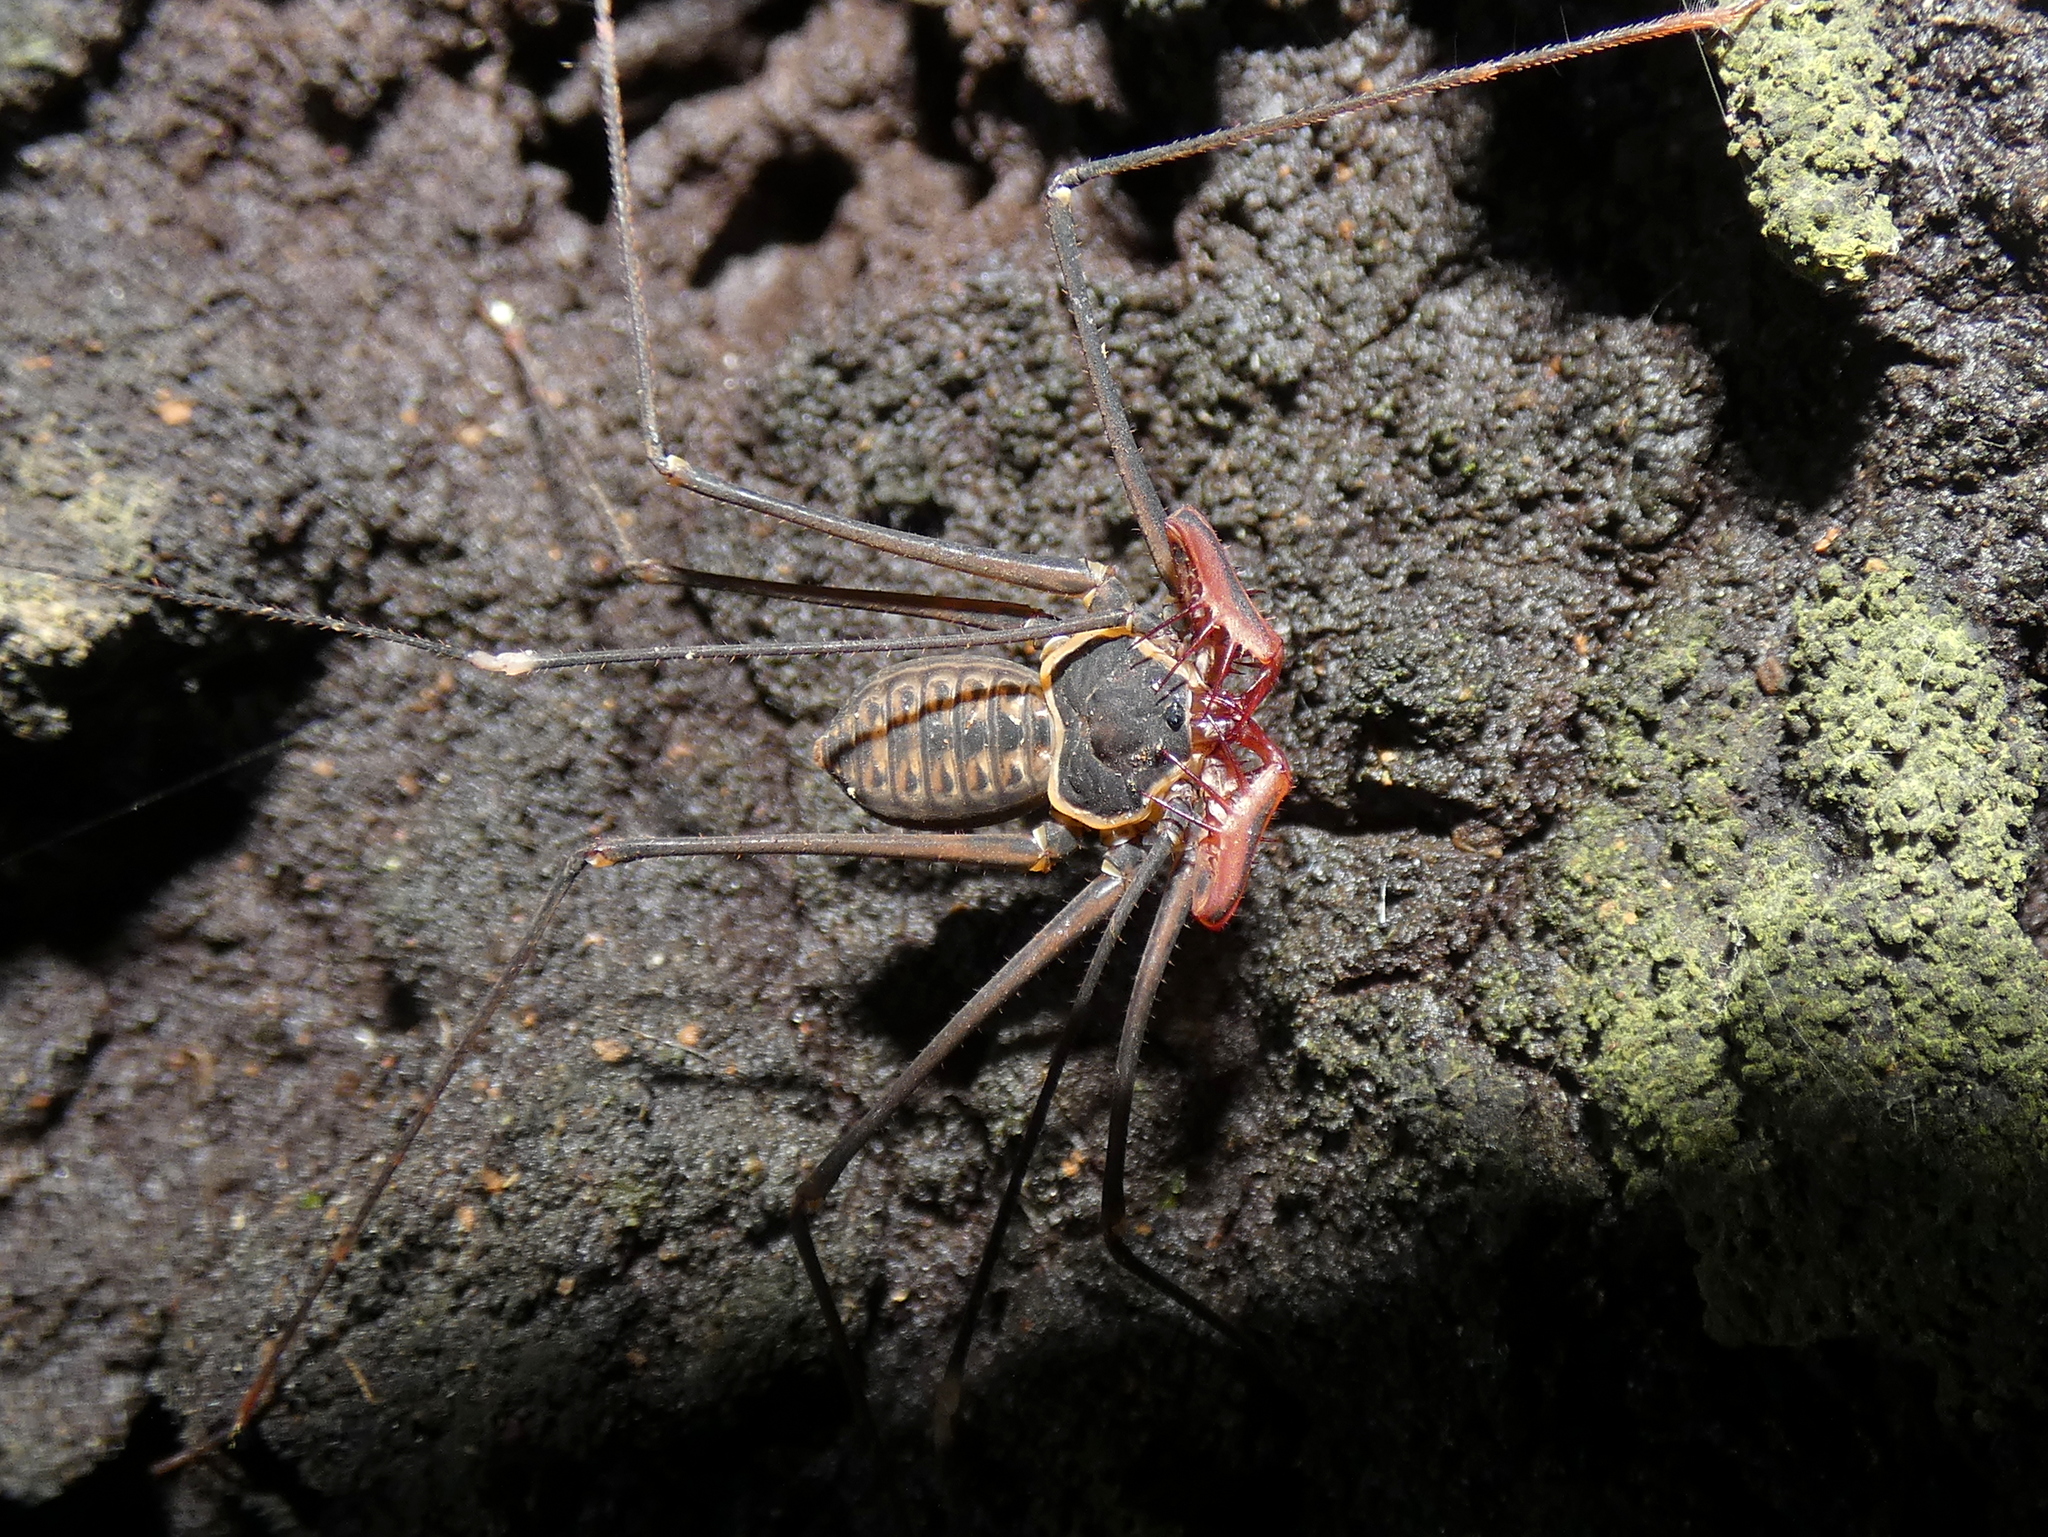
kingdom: Animalia
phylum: Arthropoda
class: Arachnida
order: Amblypygi
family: Phrynidae
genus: Heterophrynus
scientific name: Heterophrynus batesii
